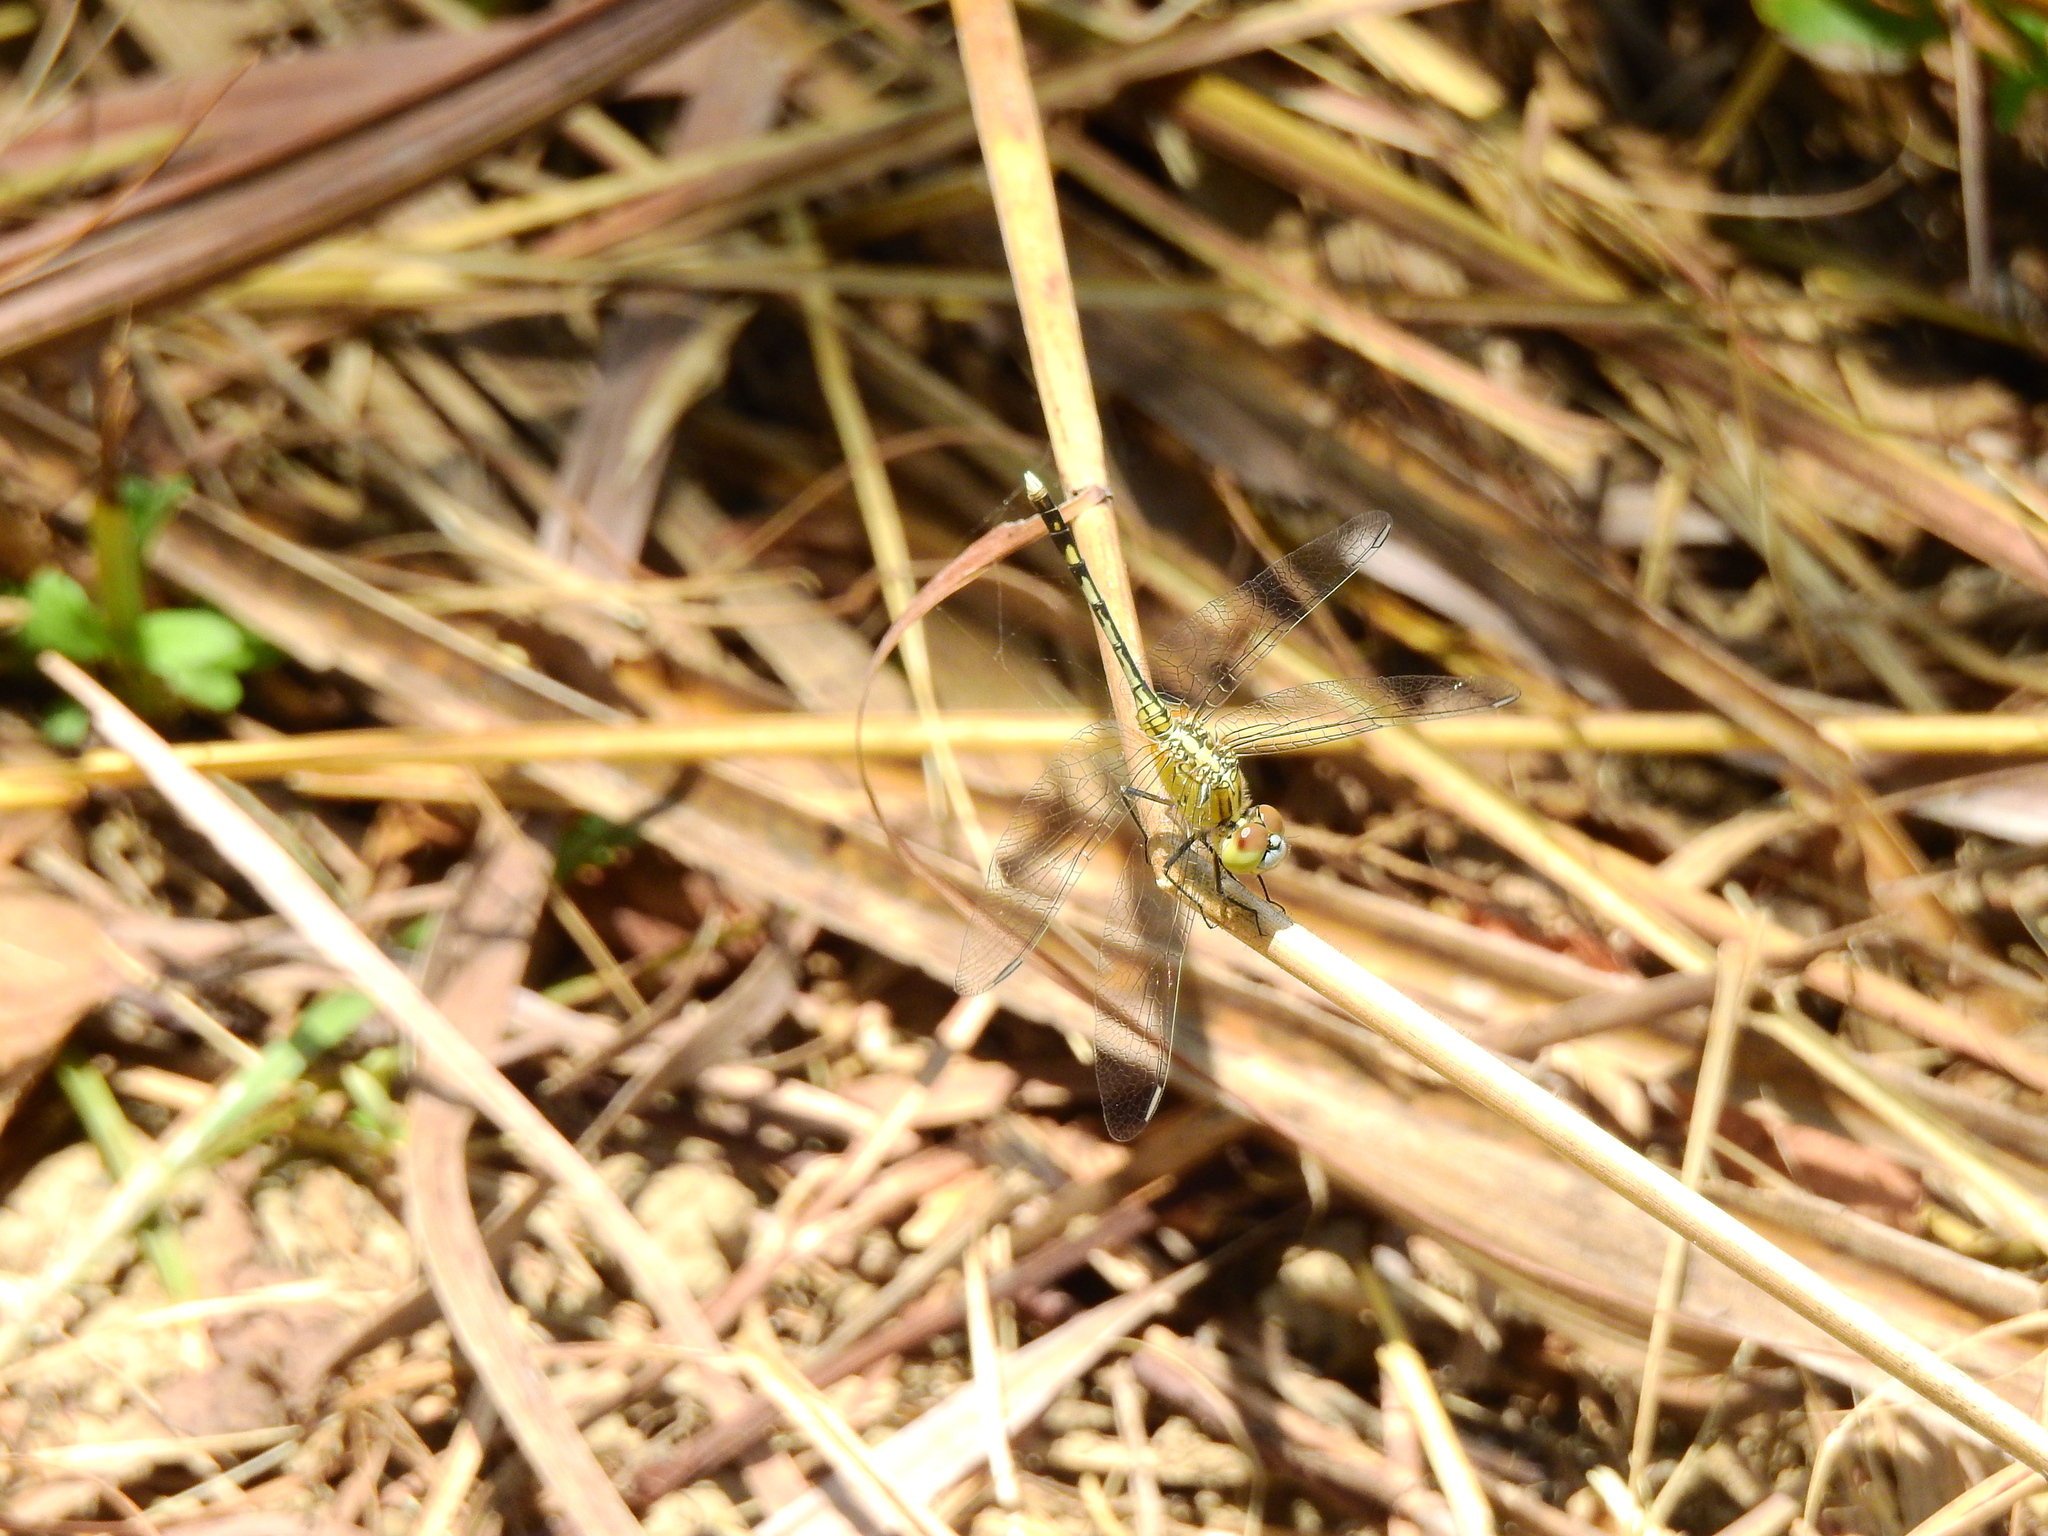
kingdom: Animalia
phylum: Arthropoda
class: Insecta
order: Odonata
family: Libellulidae
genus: Diplacodes
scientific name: Diplacodes trivialis
